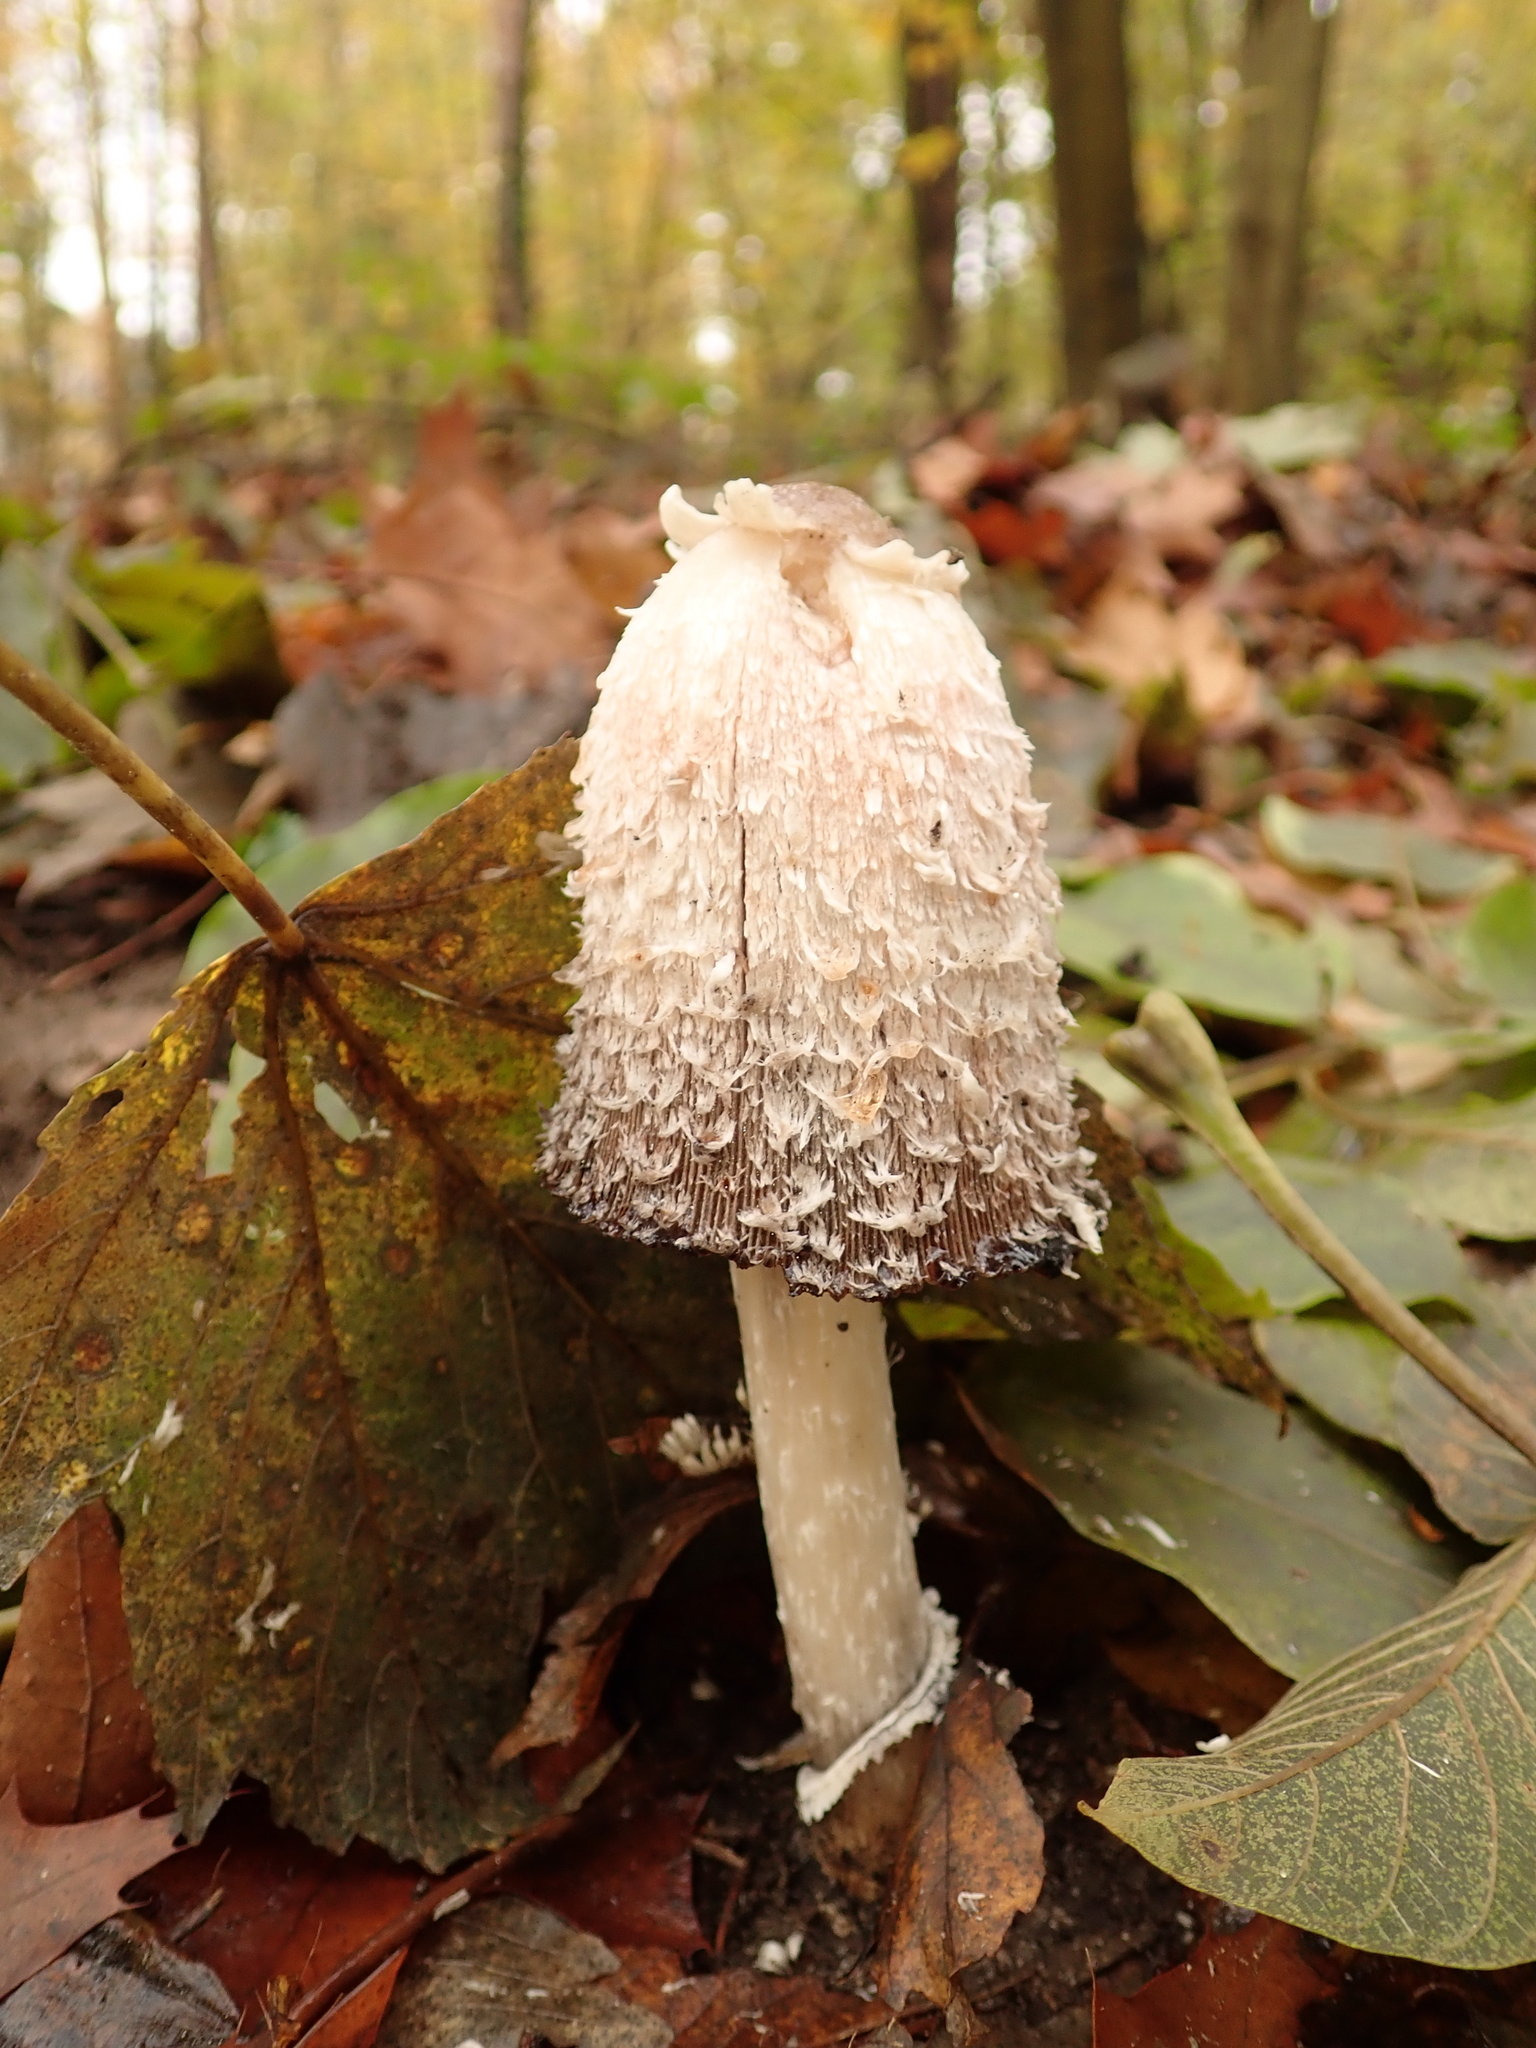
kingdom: Fungi
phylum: Basidiomycota
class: Agaricomycetes
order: Agaricales
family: Agaricaceae
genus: Coprinus
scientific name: Coprinus comatus
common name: Lawyer's wig
